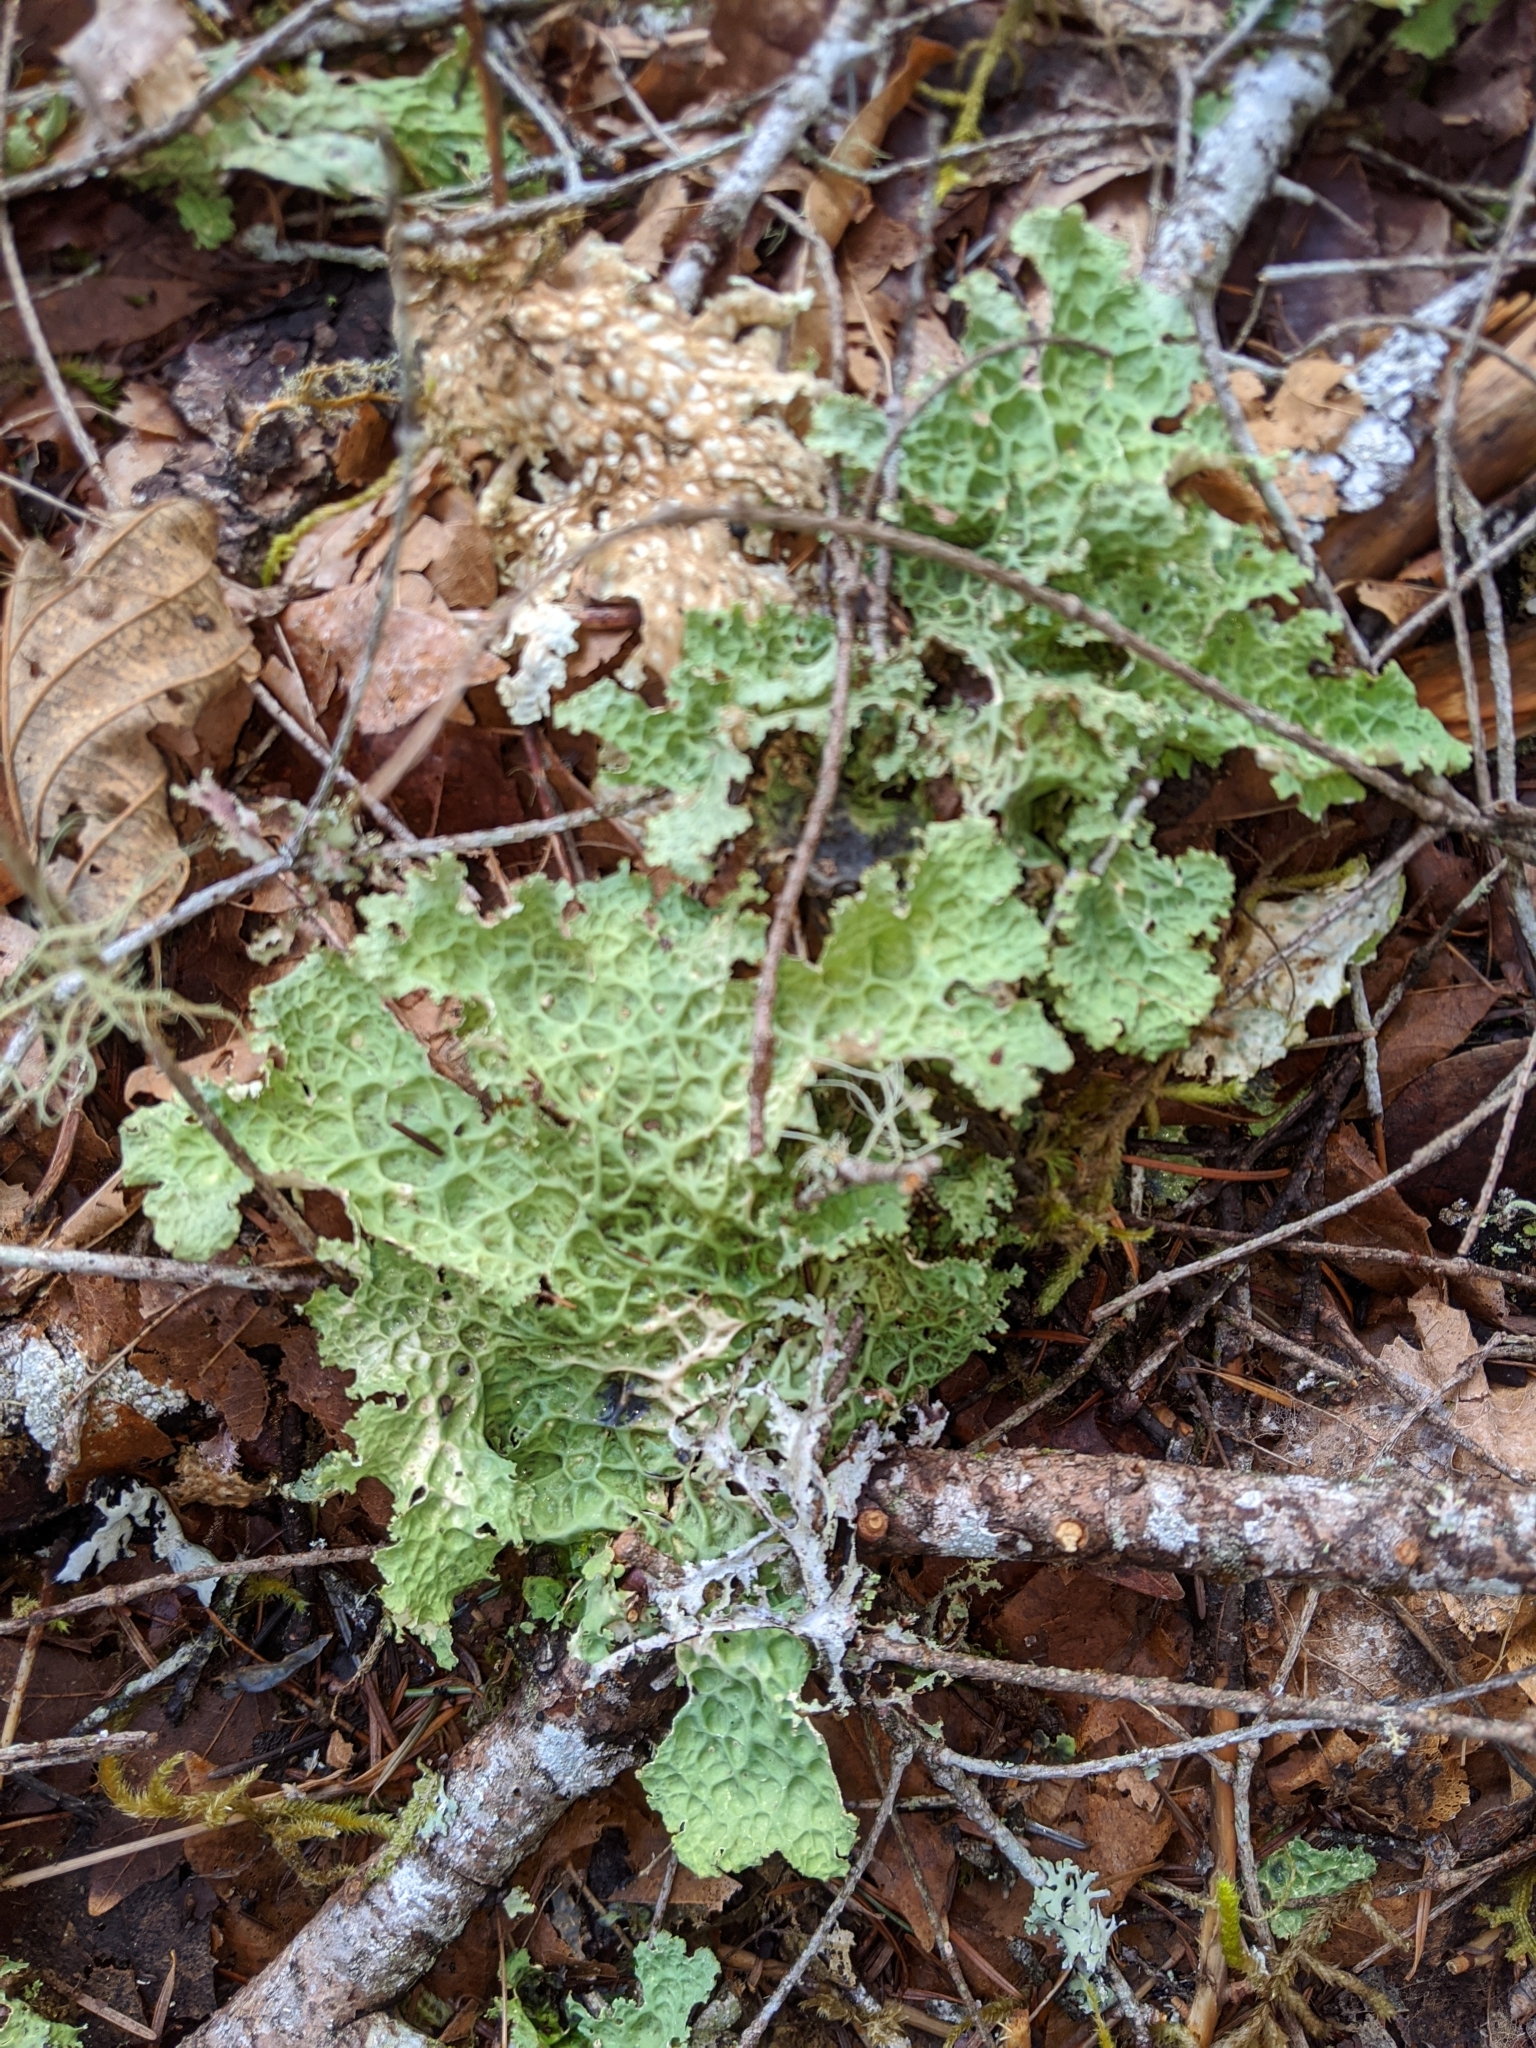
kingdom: Fungi
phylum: Ascomycota
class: Lecanoromycetes
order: Peltigerales
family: Lobariaceae
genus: Lobaria
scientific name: Lobaria oregana
